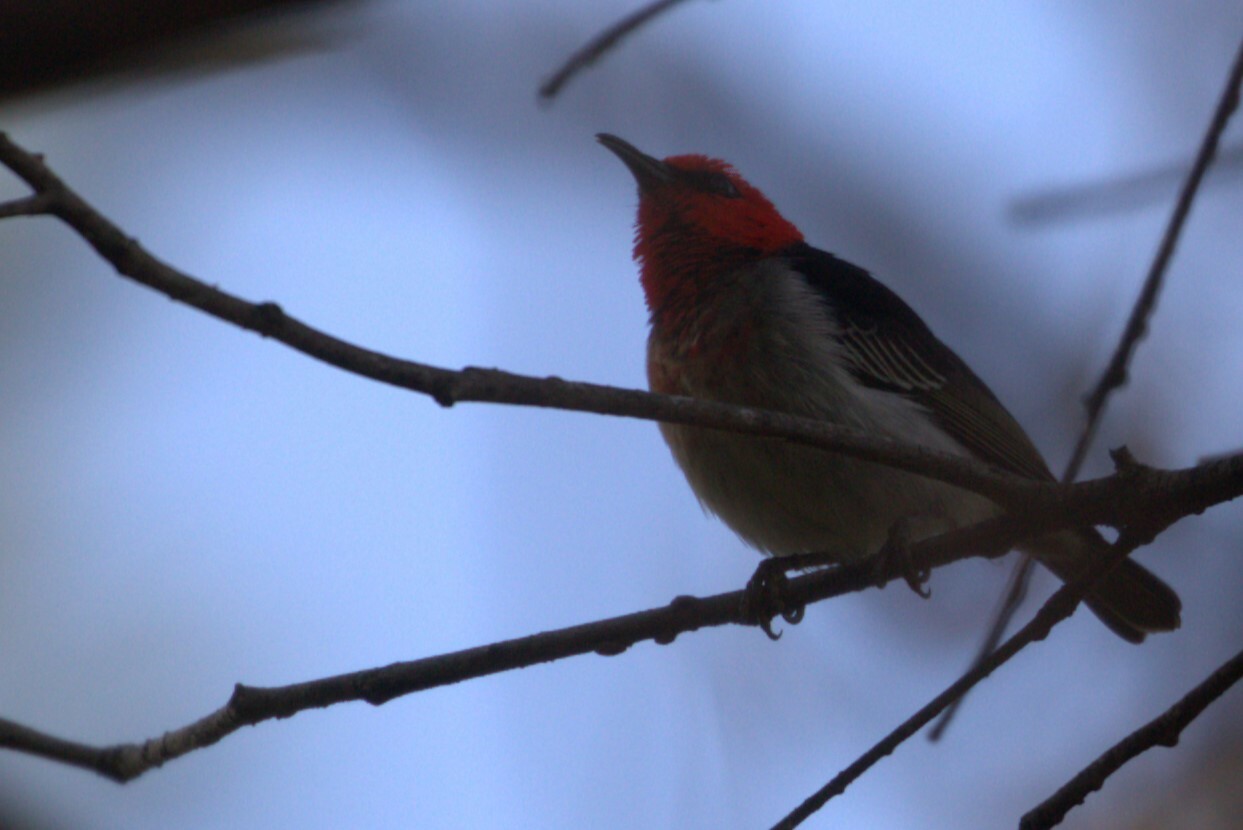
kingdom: Animalia
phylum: Chordata
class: Aves
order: Passeriformes
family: Meliphagidae
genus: Myzomela
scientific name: Myzomela sanguinolenta
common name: Scarlet myzomela
